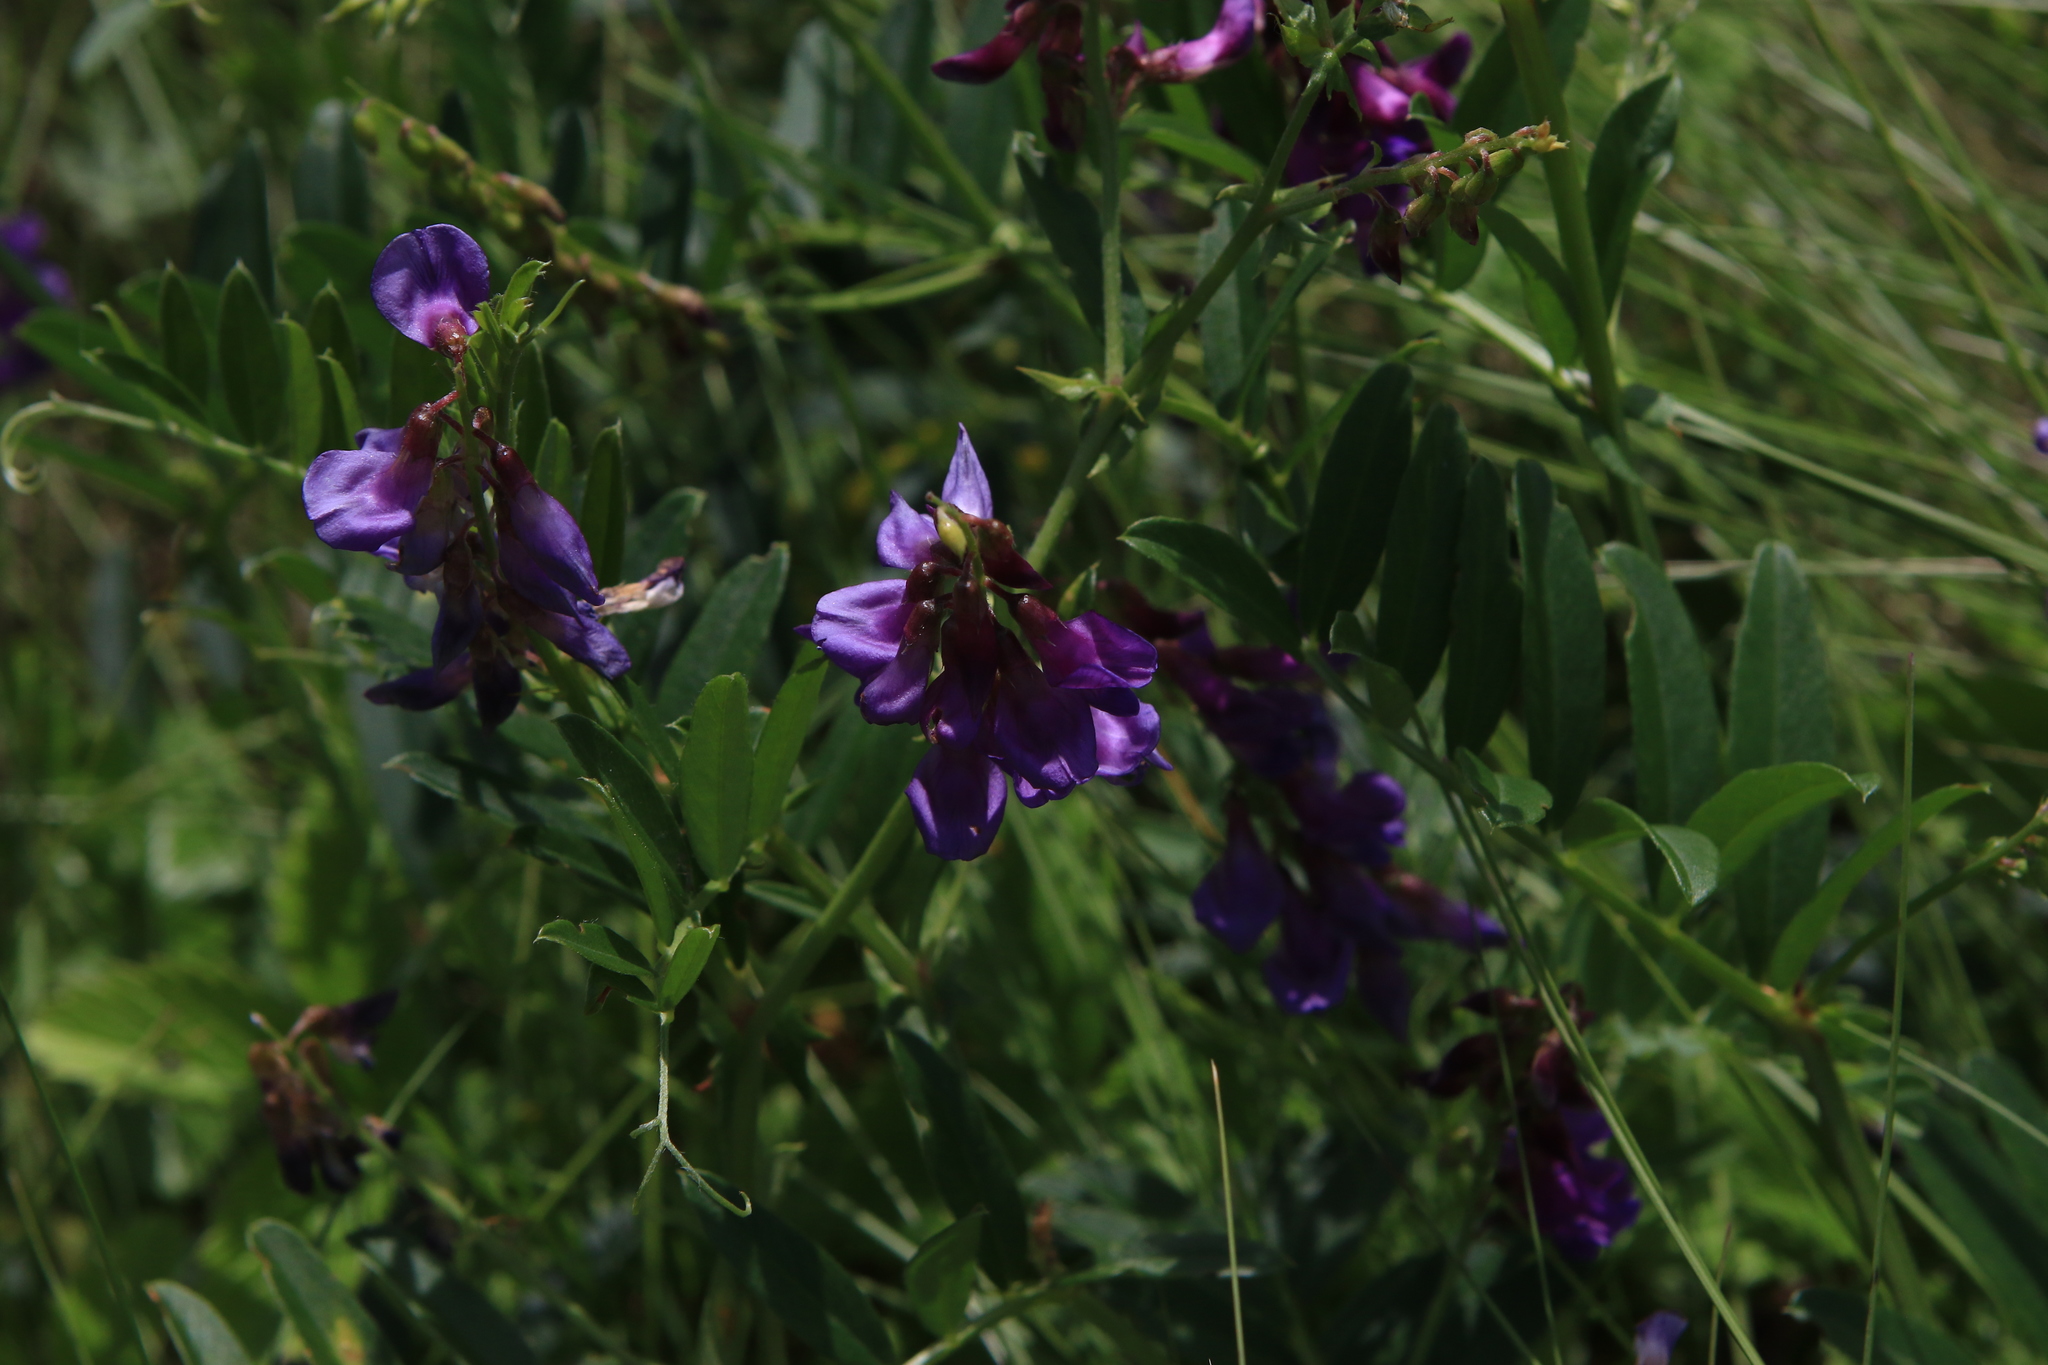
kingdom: Plantae
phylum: Tracheophyta
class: Magnoliopsida
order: Fabales
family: Fabaceae
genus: Vicia
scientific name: Vicia amoena
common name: Cheder ebs
